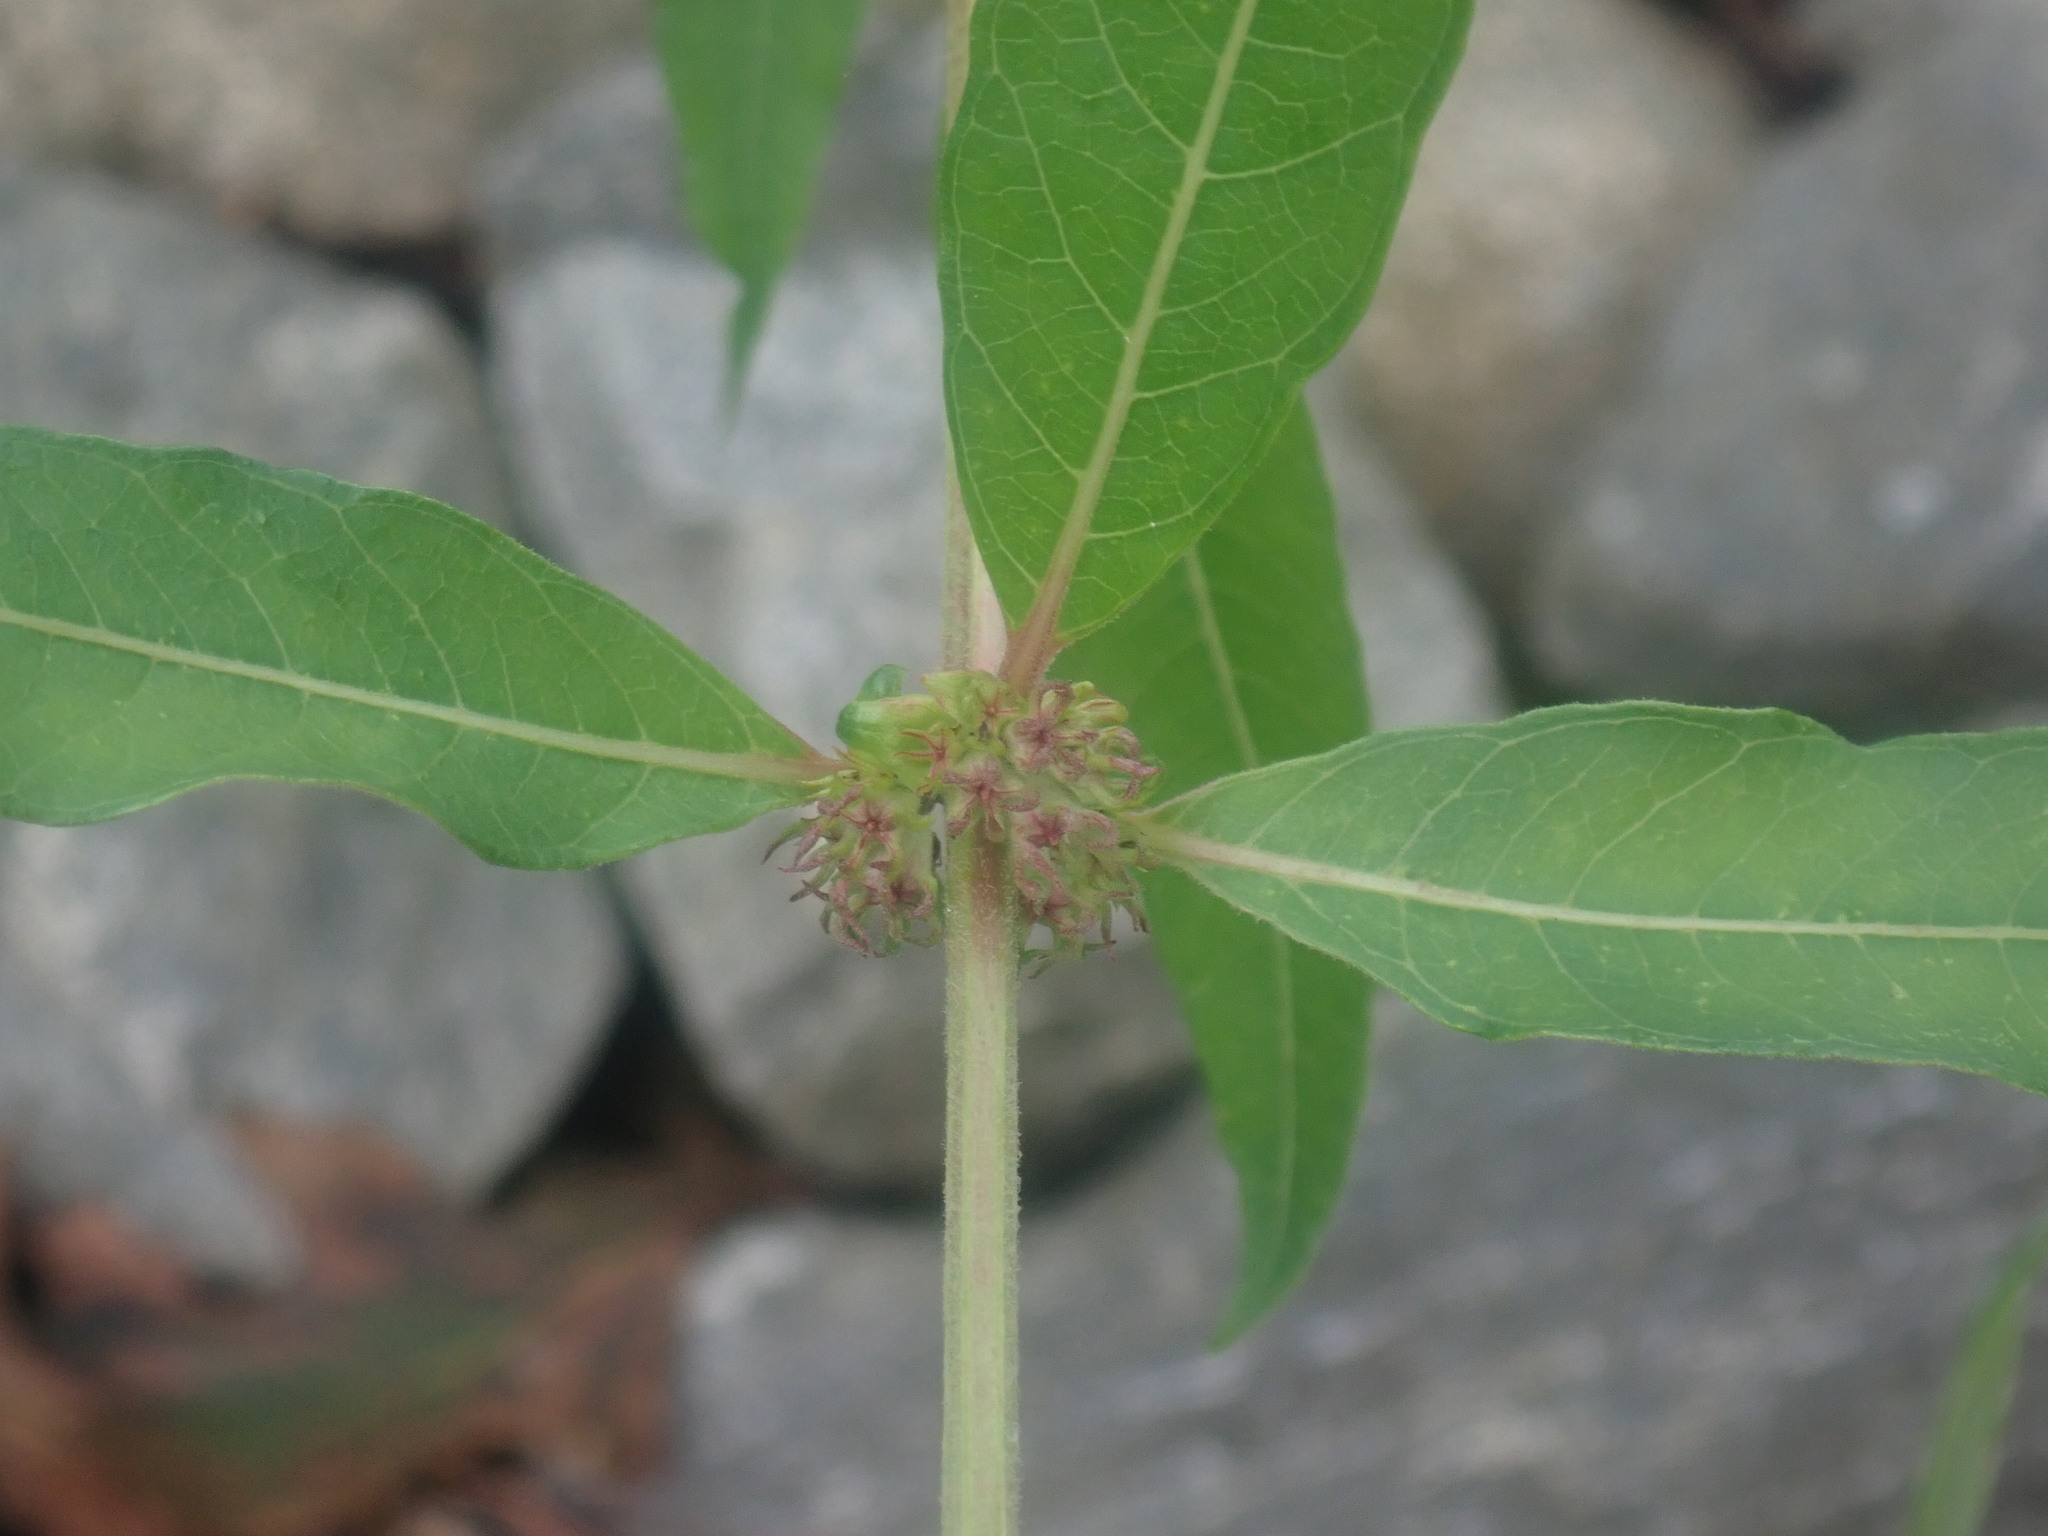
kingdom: Plantae
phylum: Tracheophyta
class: Magnoliopsida
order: Myrtales
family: Lythraceae
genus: Decodon
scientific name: Decodon verticillatus
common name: Hairy swamp loosestrife
